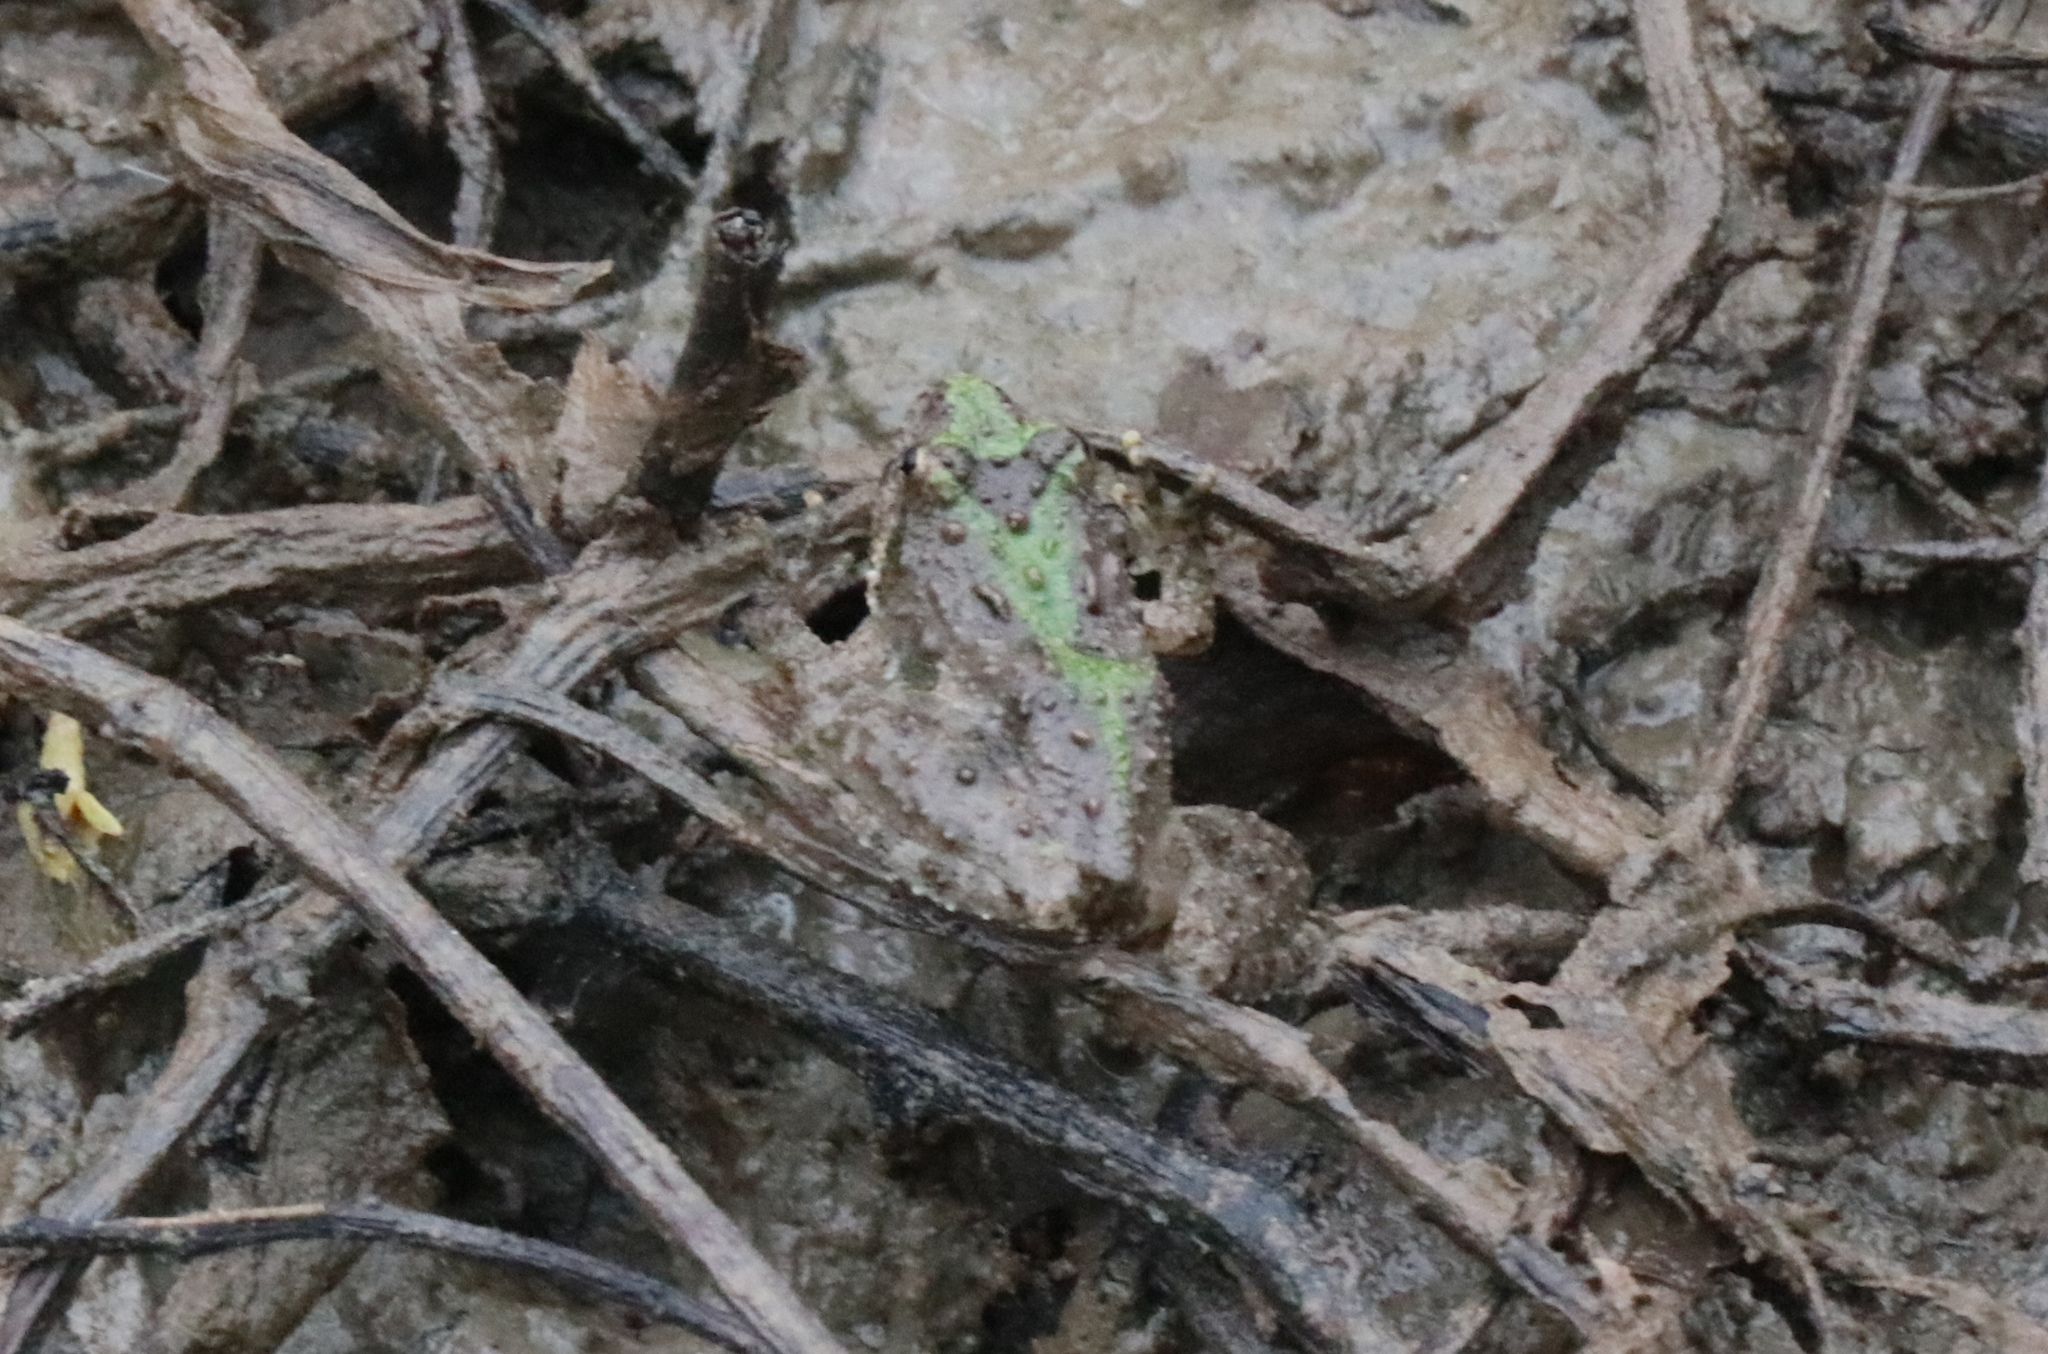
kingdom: Animalia
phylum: Chordata
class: Amphibia
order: Anura
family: Hylidae
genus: Acris
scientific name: Acris crepitans
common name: Northern cricket frog
